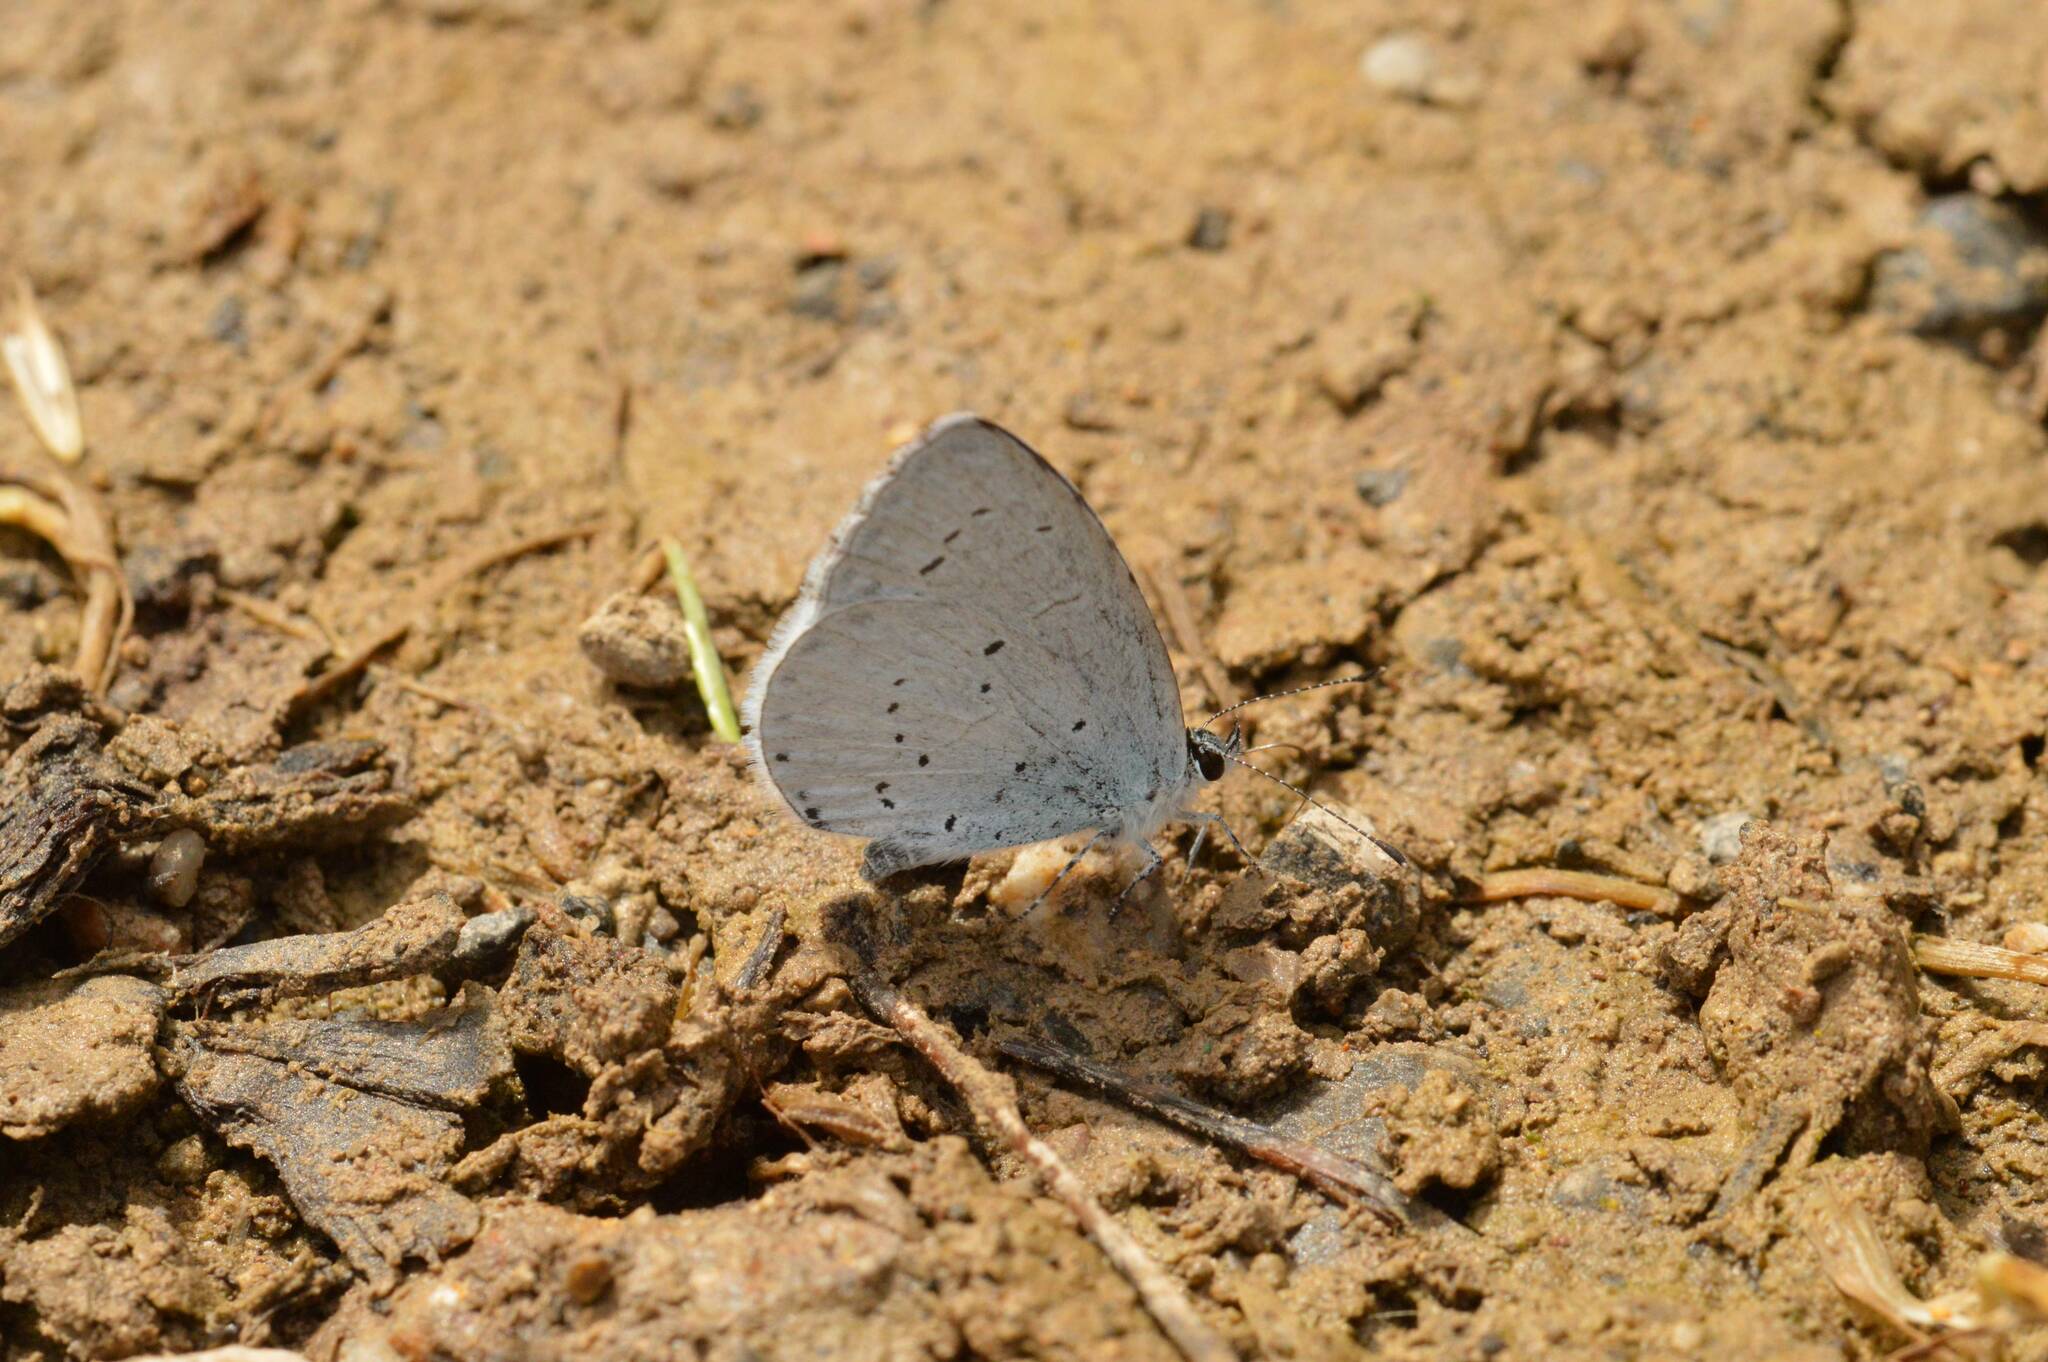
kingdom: Animalia
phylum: Arthropoda
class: Insecta
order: Lepidoptera
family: Lycaenidae
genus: Celastrina
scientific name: Celastrina argiolus
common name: Holly blue
